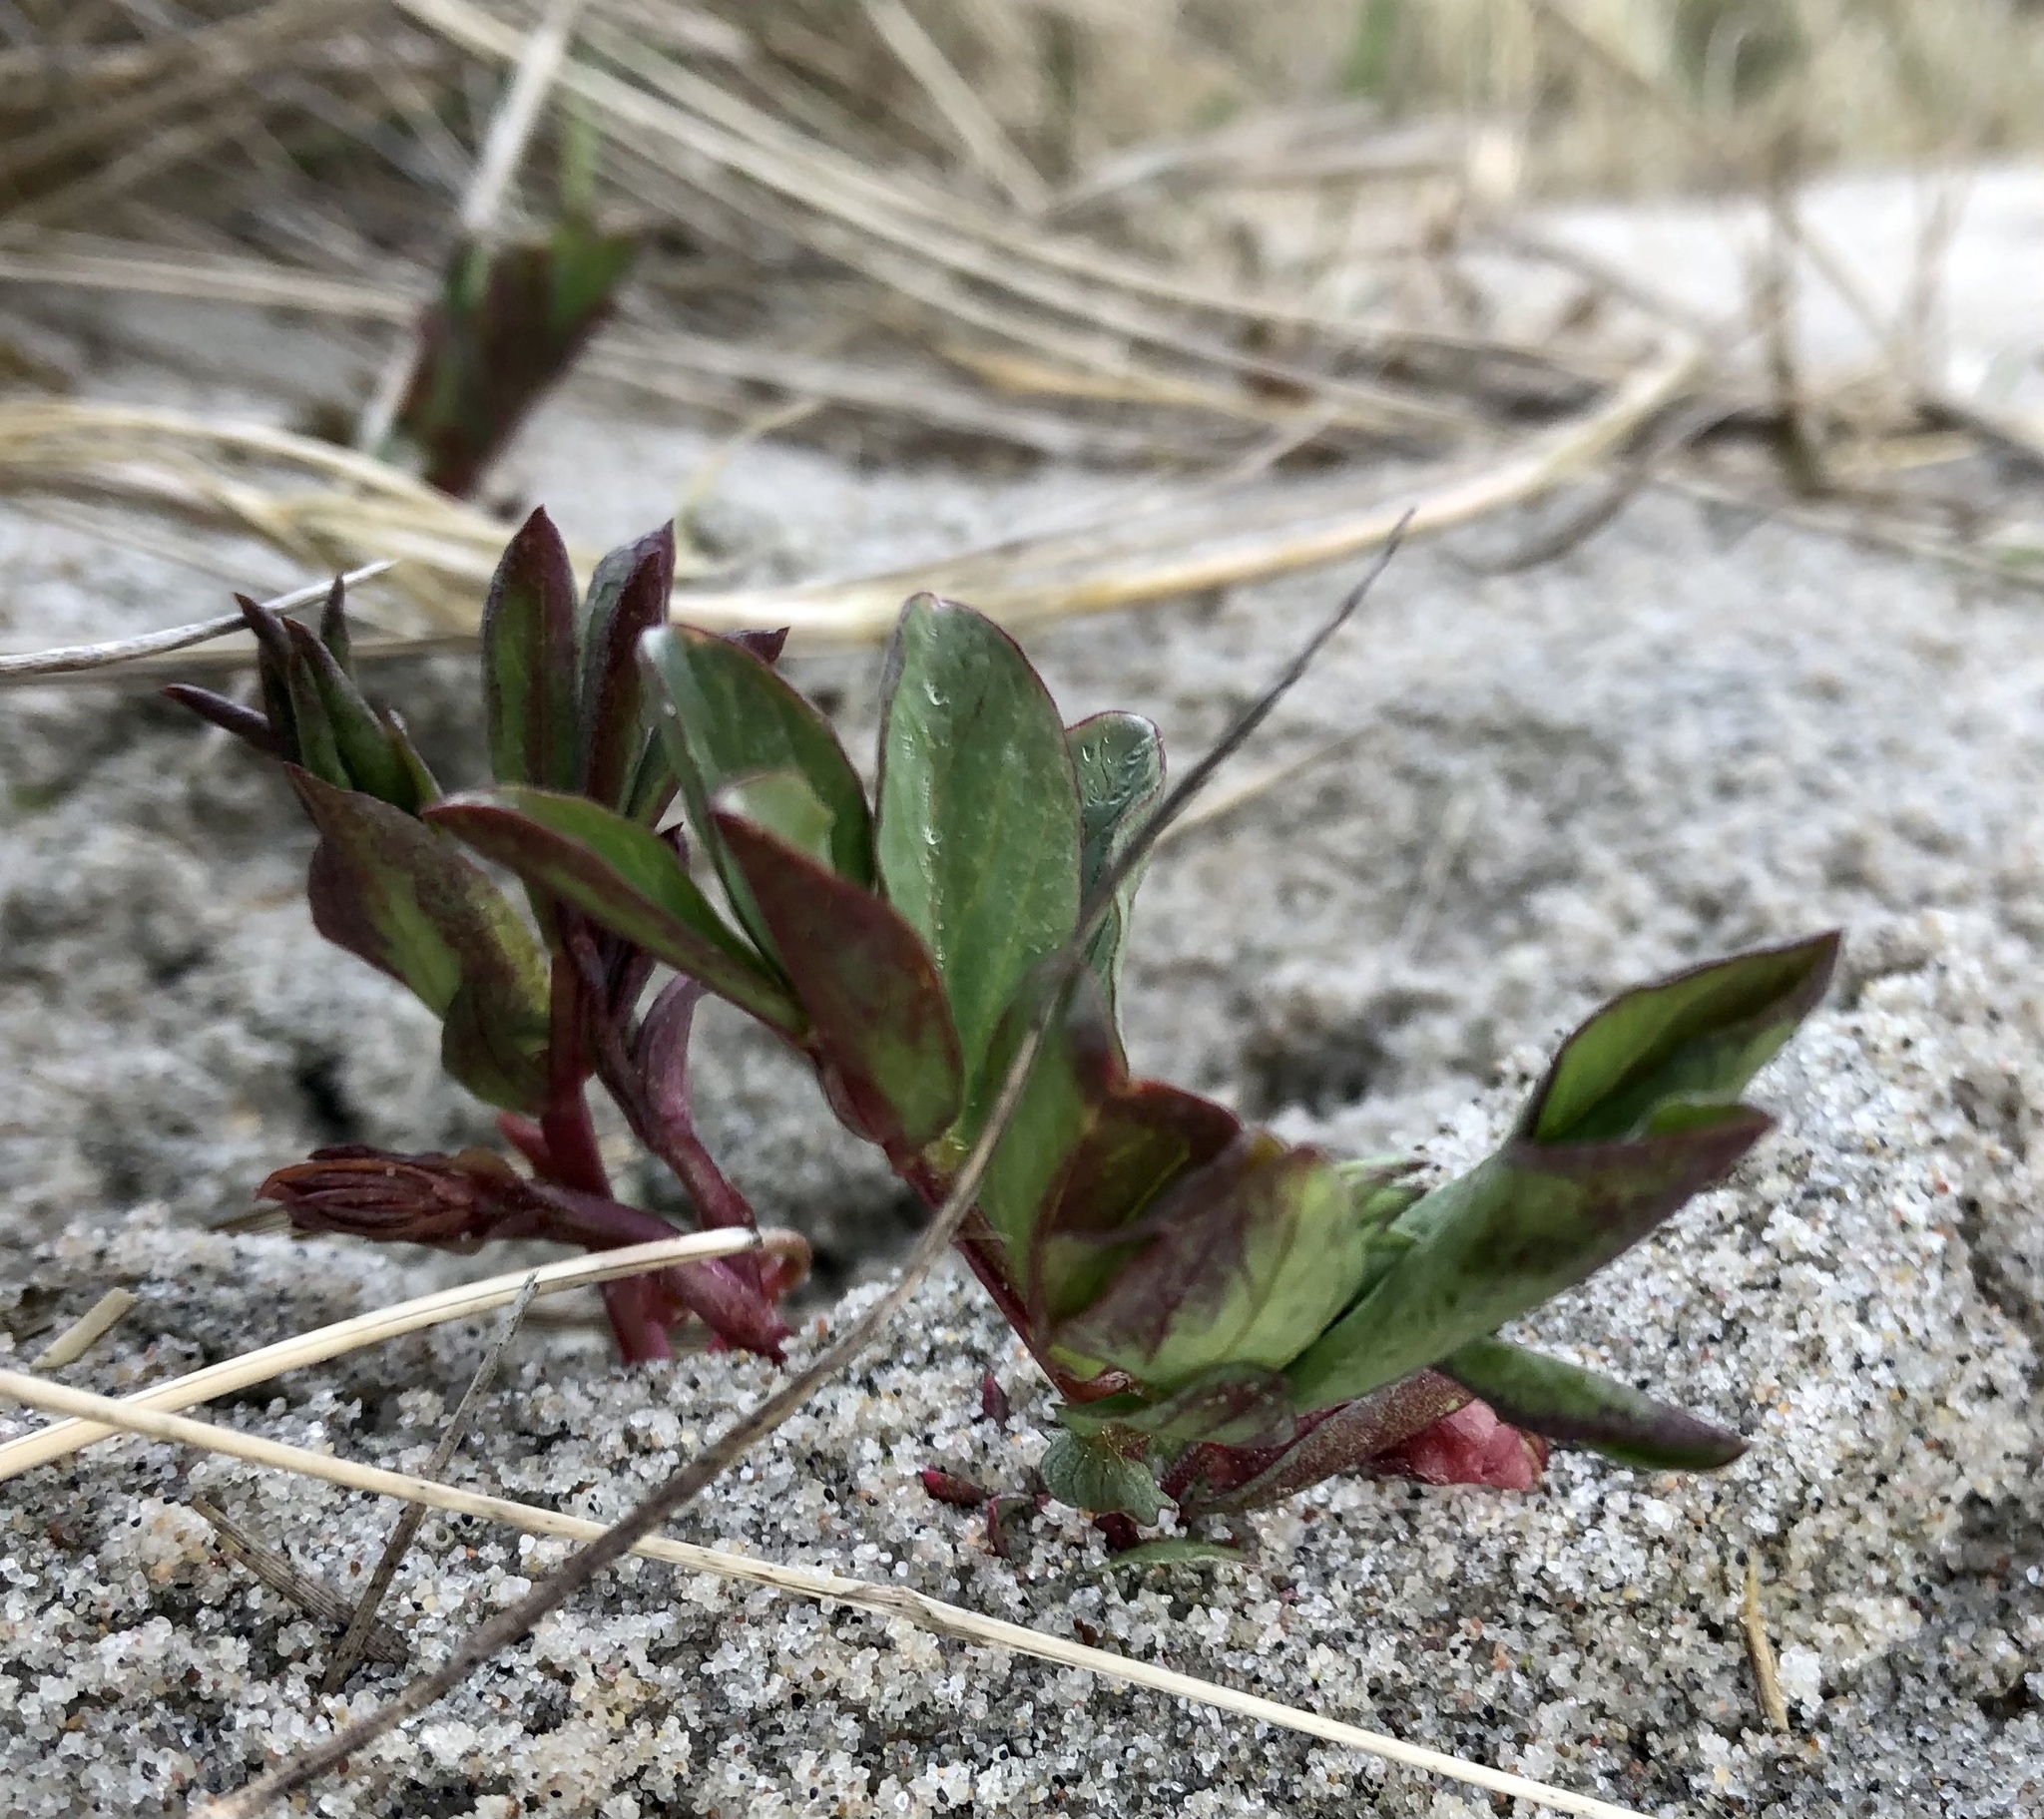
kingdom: Plantae
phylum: Tracheophyta
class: Magnoliopsida
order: Fabales
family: Fabaceae
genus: Lathyrus
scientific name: Lathyrus japonicus
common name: Sea pea
